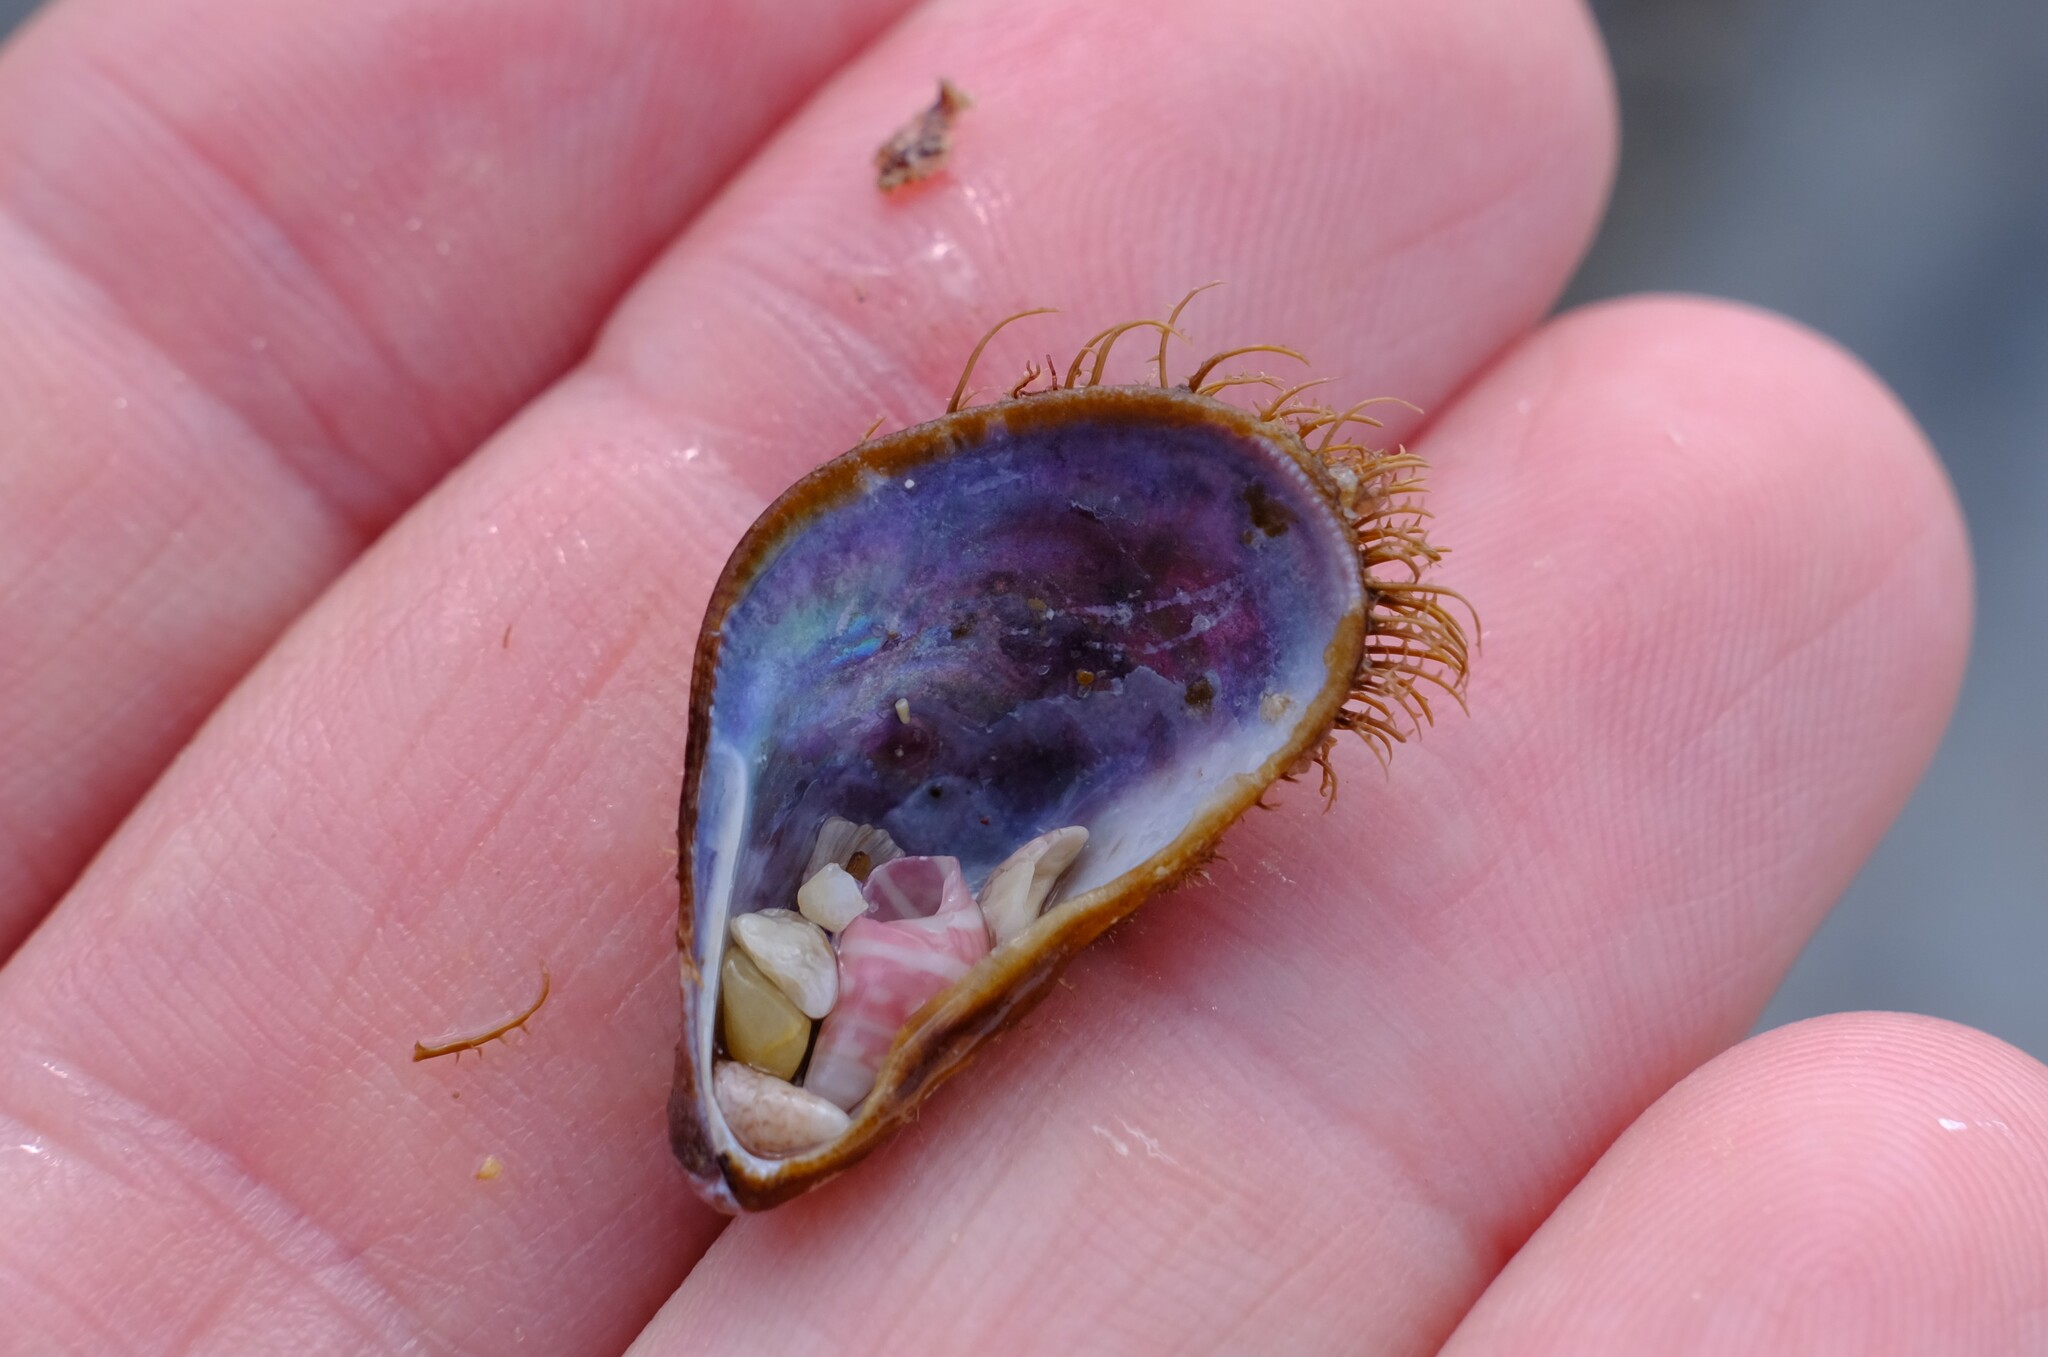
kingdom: Animalia
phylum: Mollusca
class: Bivalvia
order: Mytilida
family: Mytilidae
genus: Trichomya
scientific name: Trichomya hirsuta
